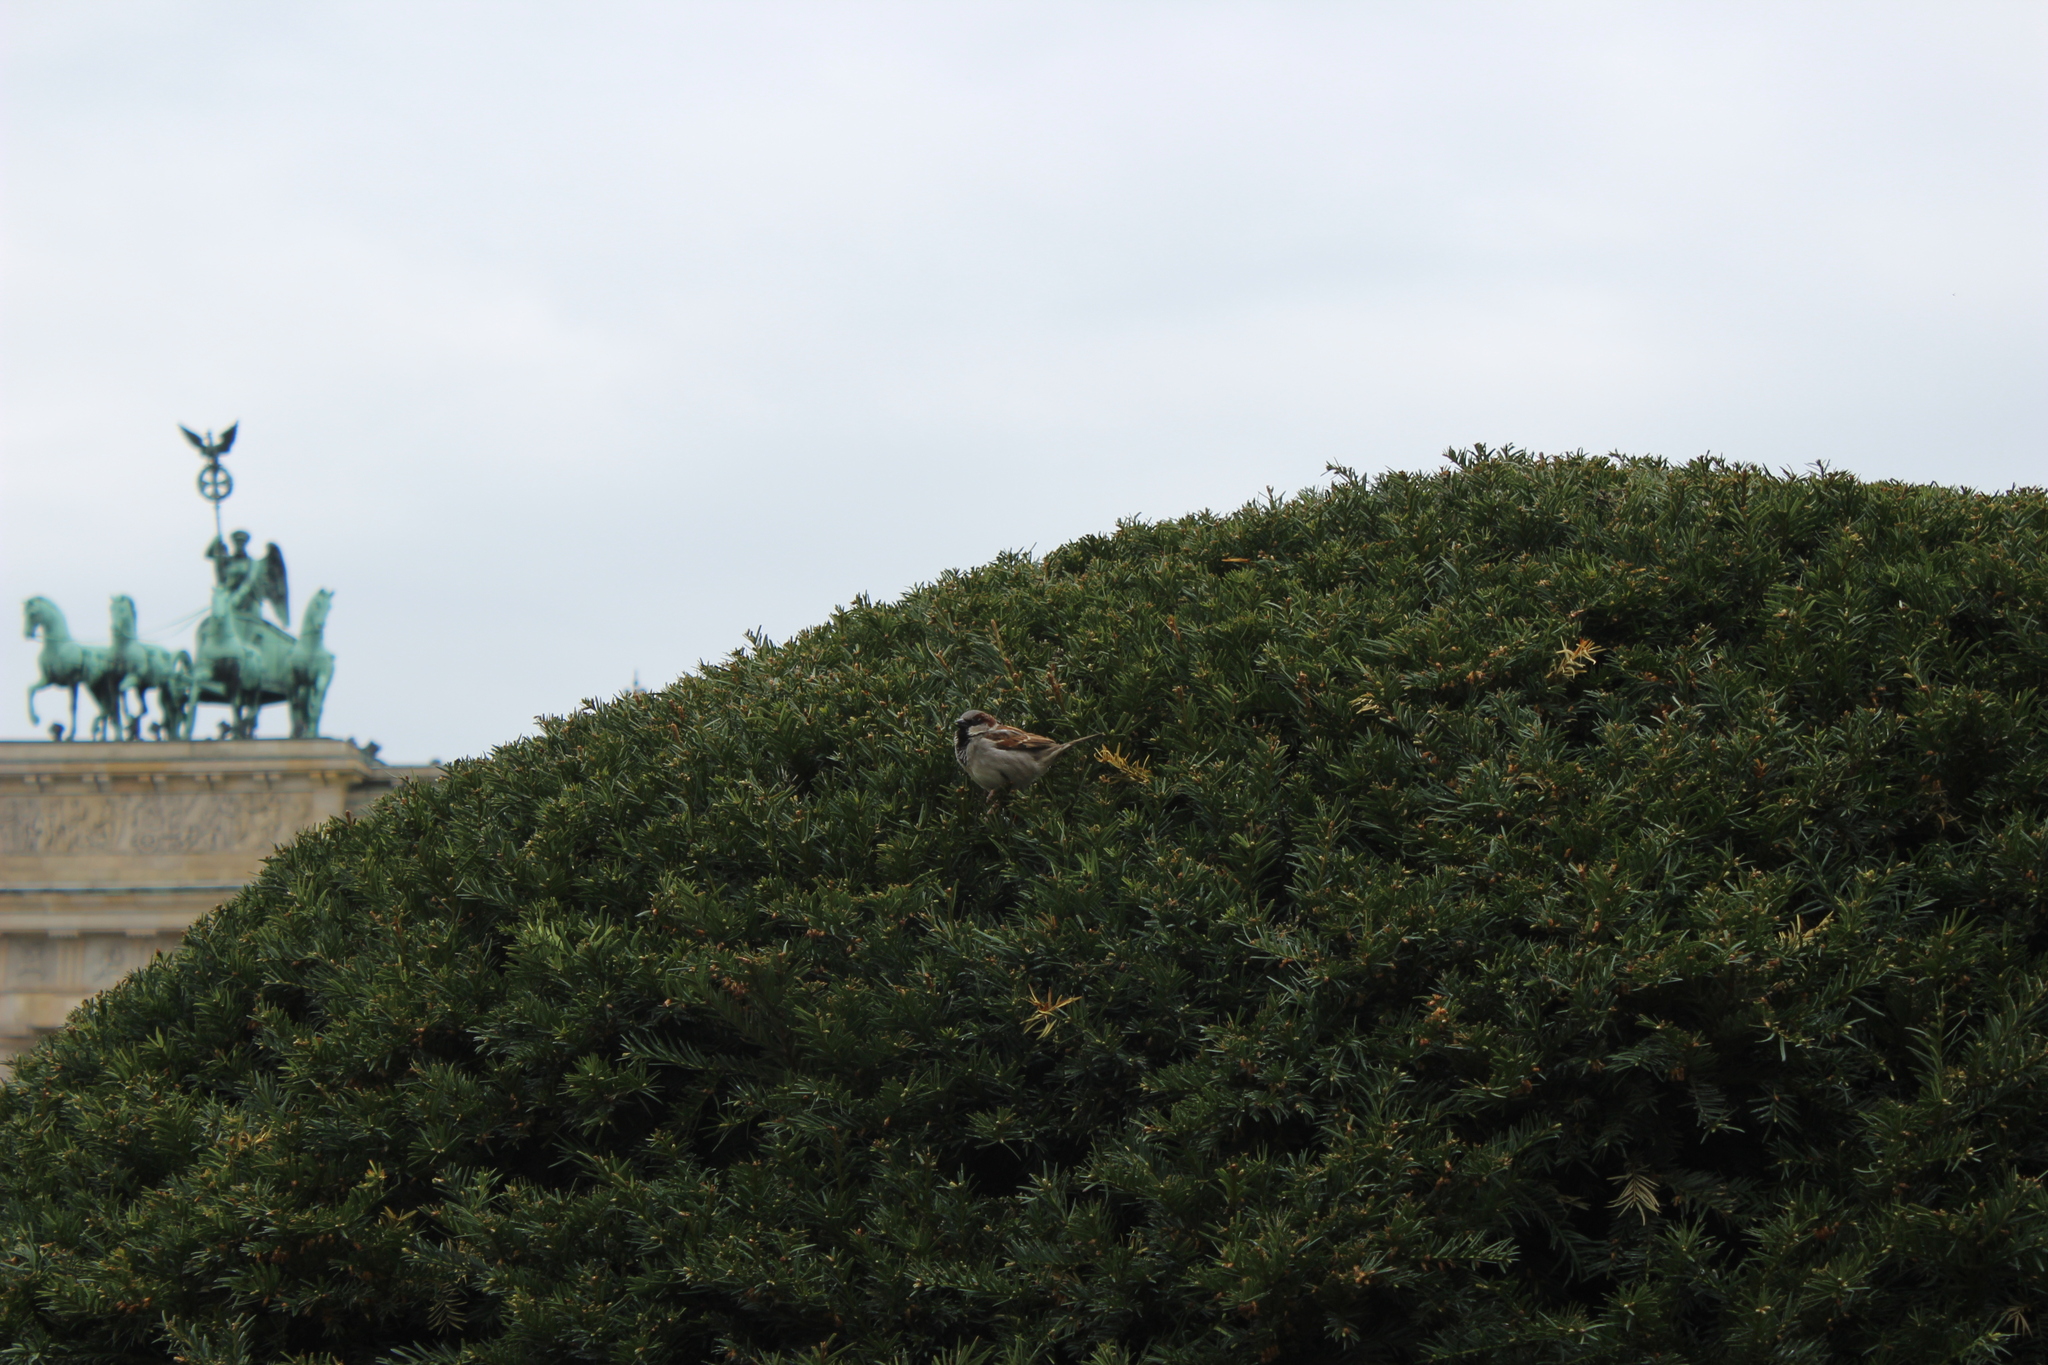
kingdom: Animalia
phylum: Chordata
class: Aves
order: Passeriformes
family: Passeridae
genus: Passer
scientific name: Passer domesticus
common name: House sparrow
